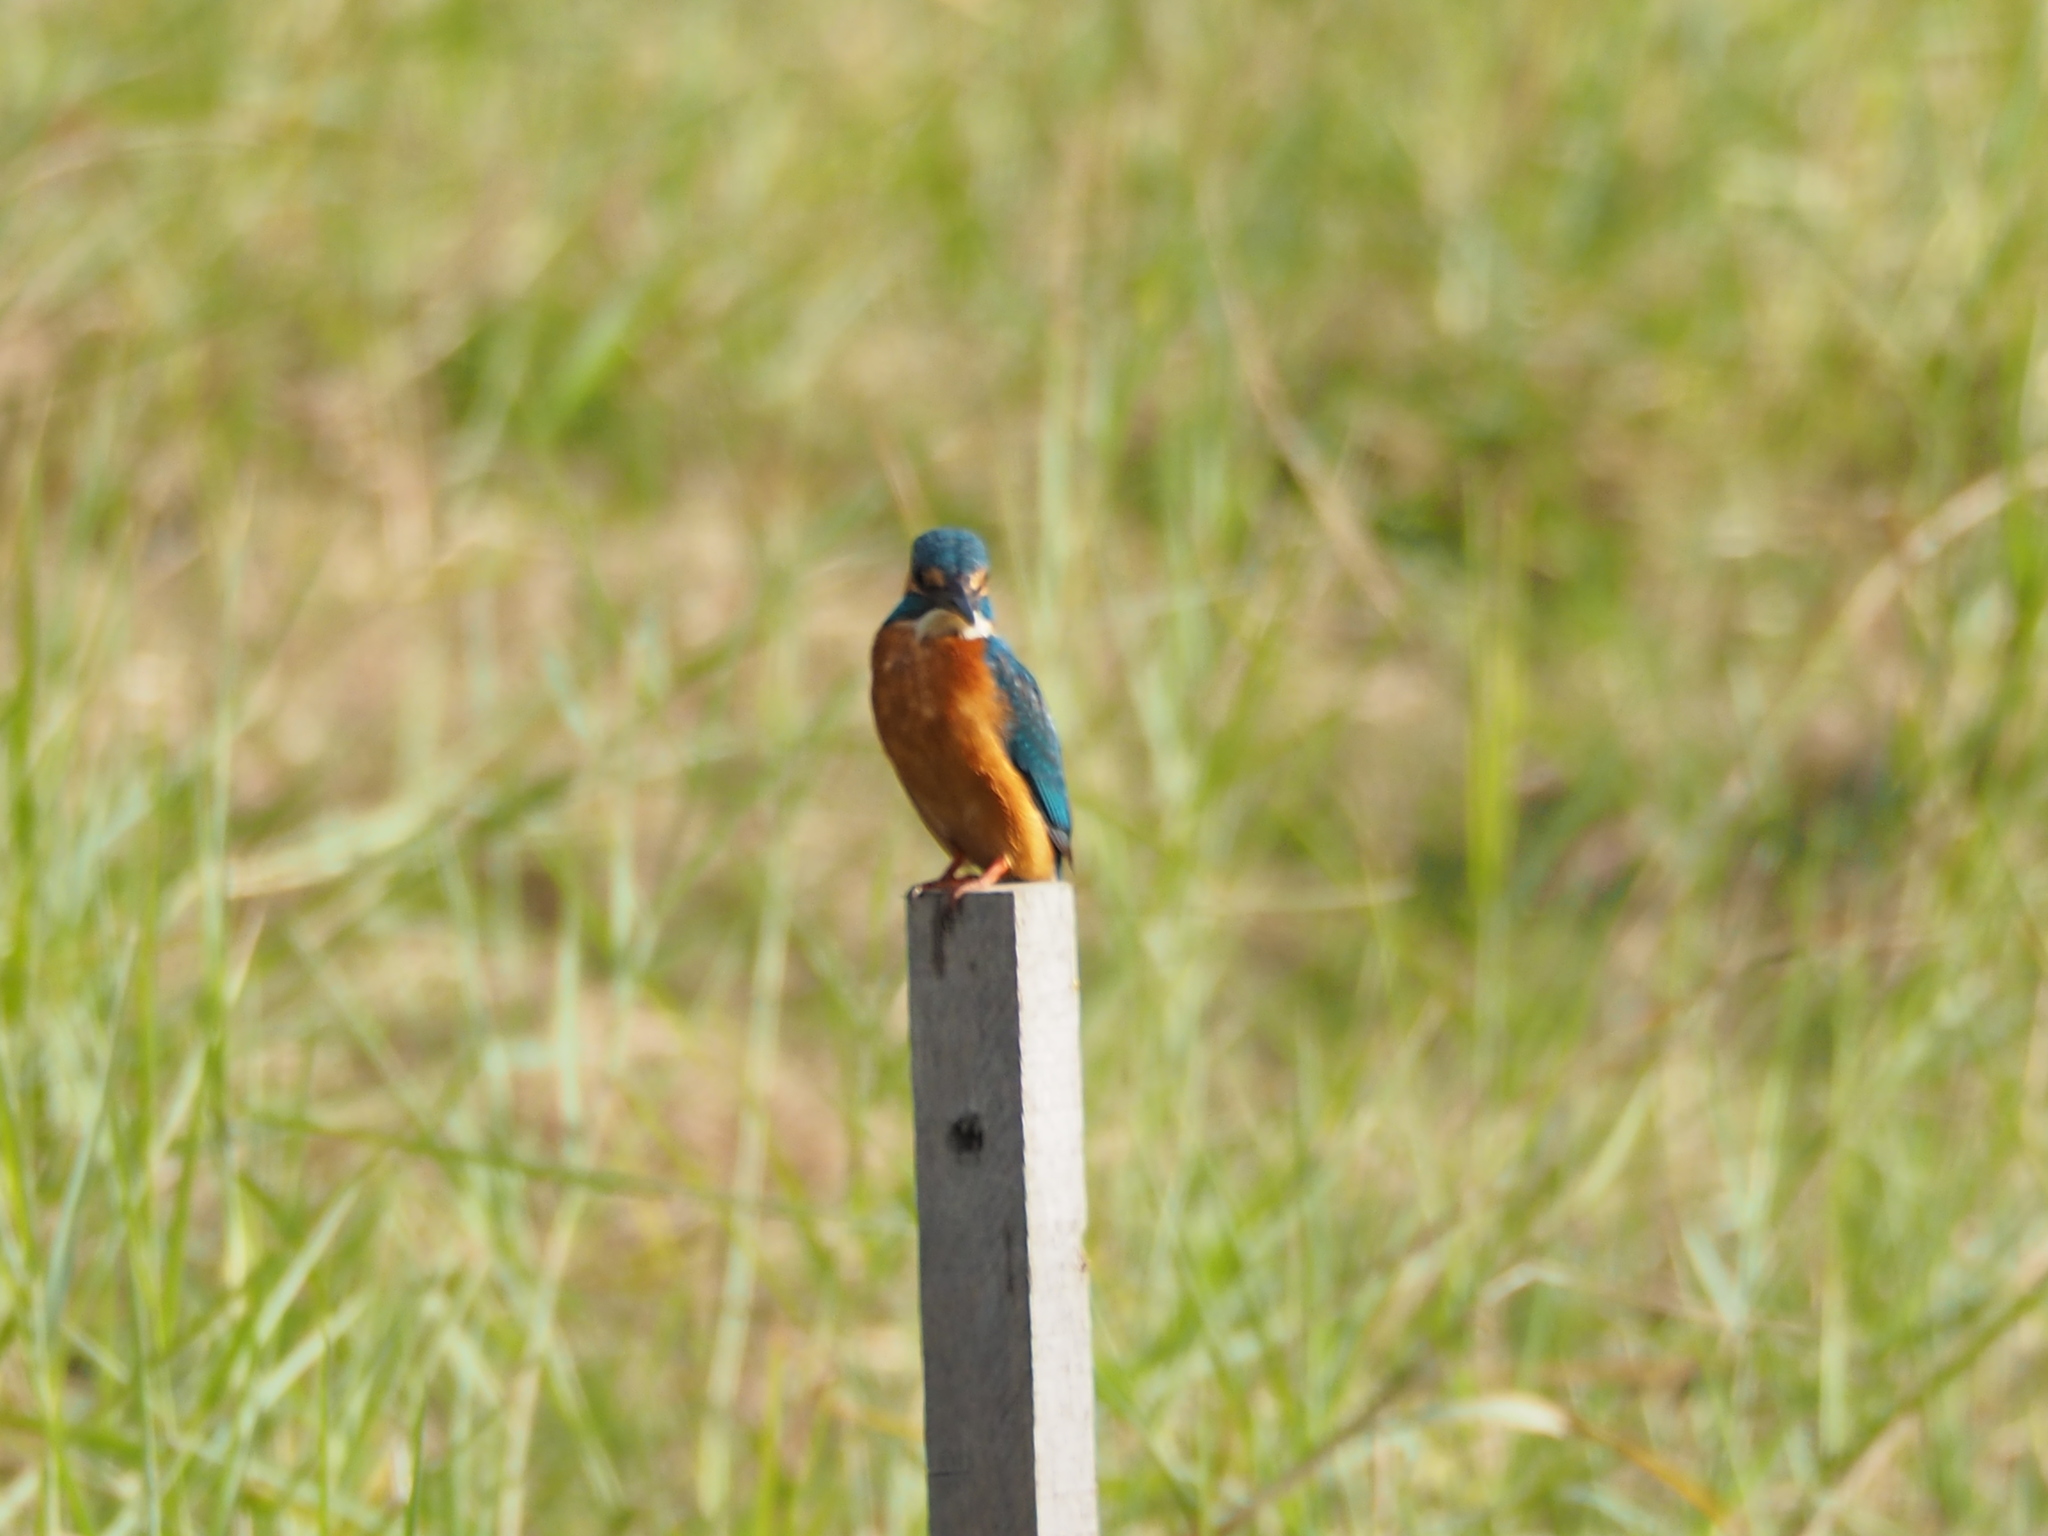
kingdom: Animalia
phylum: Chordata
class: Aves
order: Coraciiformes
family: Alcedinidae
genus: Alcedo
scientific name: Alcedo atthis
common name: Common kingfisher
